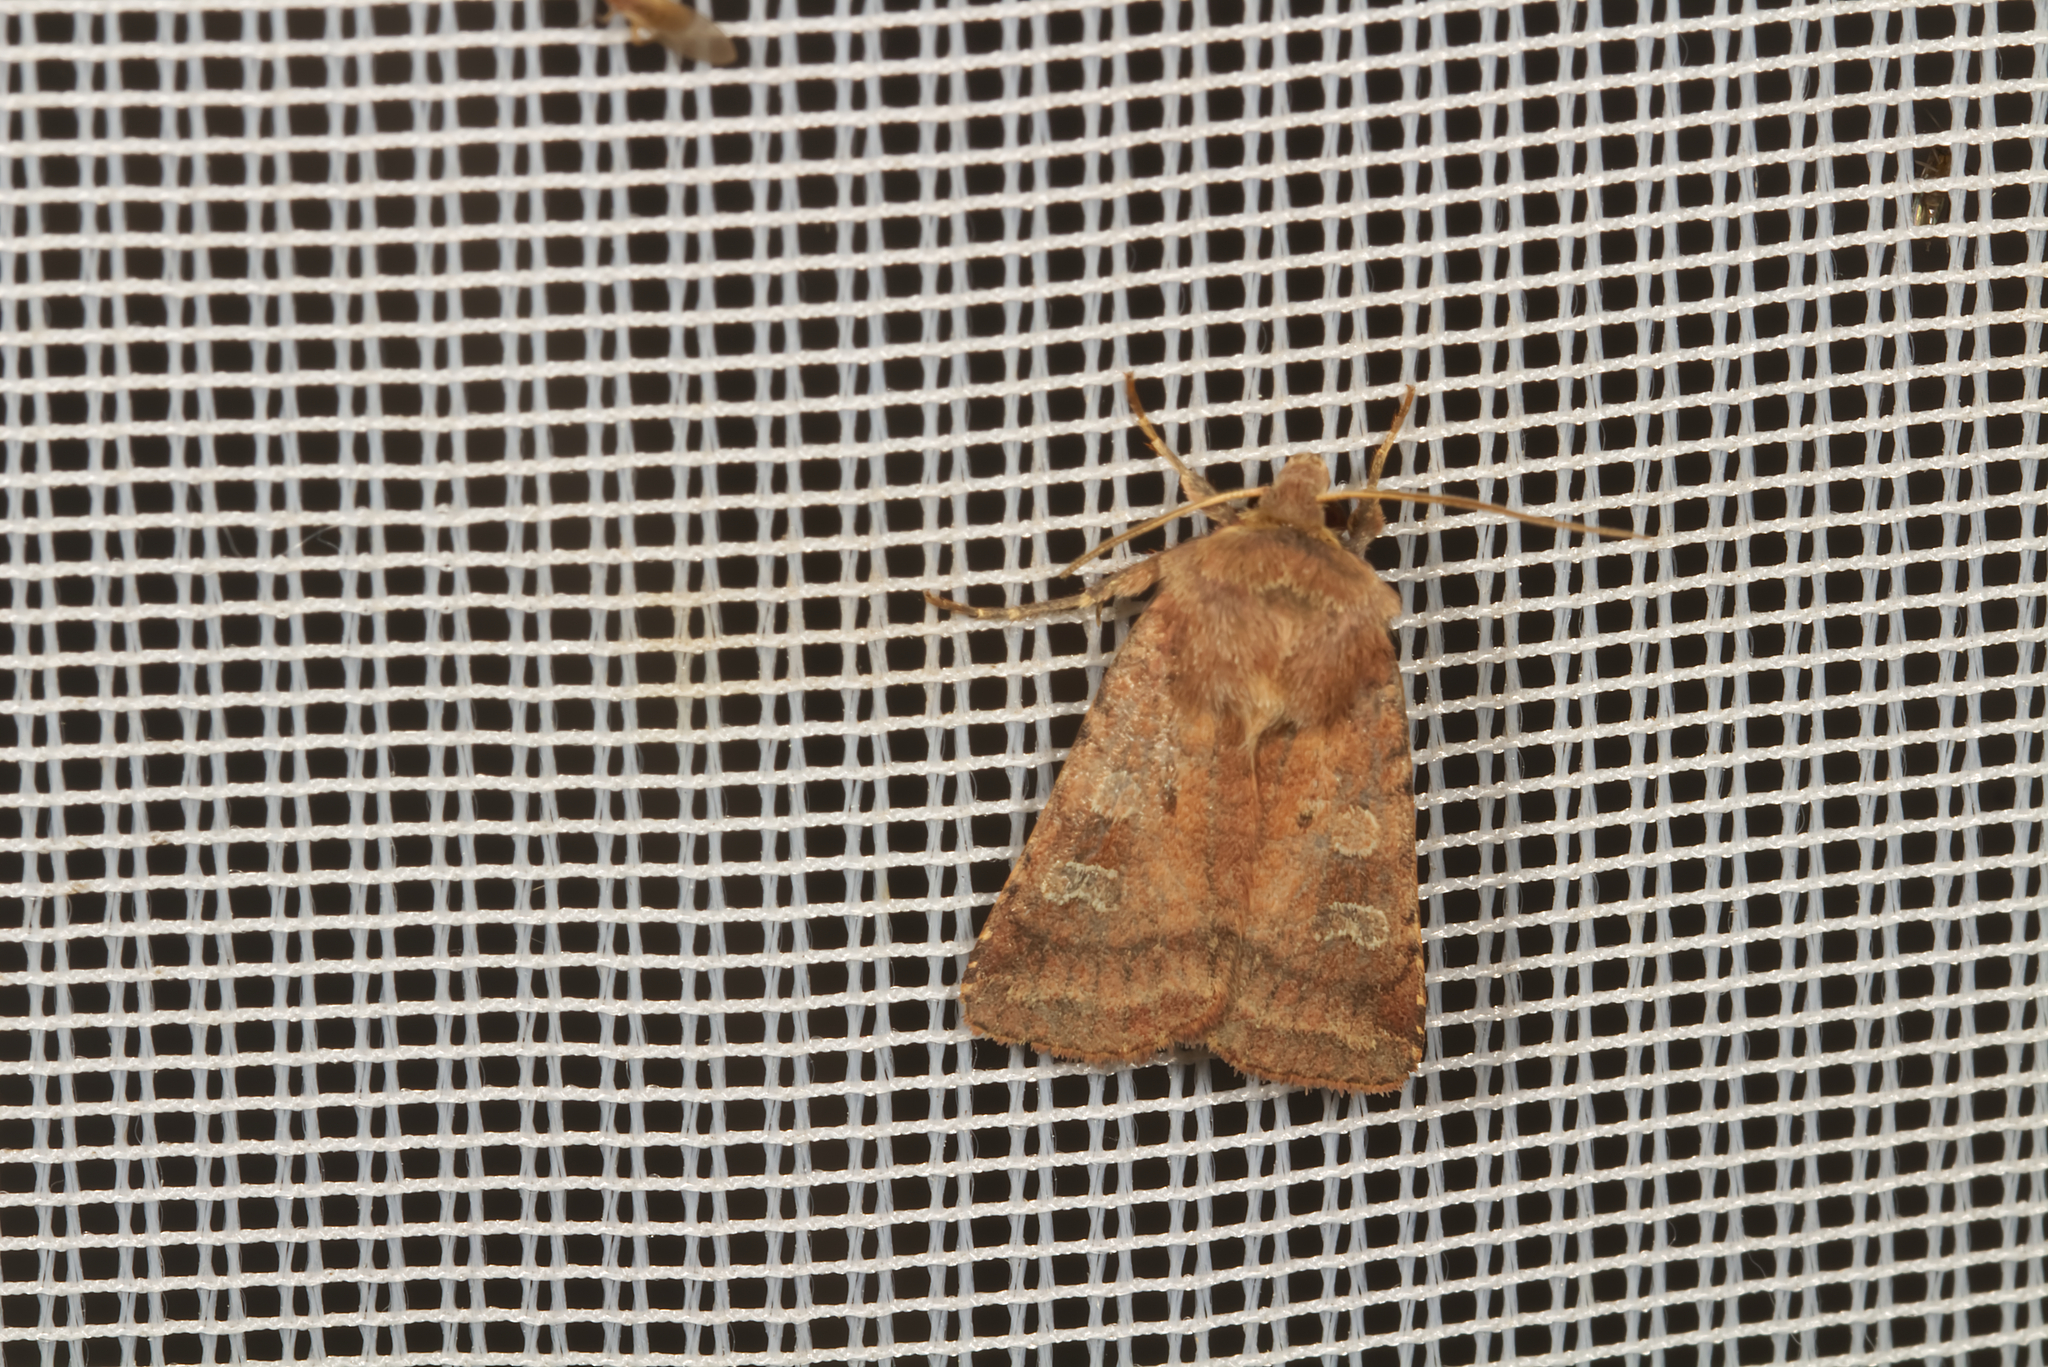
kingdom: Animalia
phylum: Arthropoda
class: Insecta
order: Lepidoptera
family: Noctuidae
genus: Diarsia
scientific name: Diarsia rubi
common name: Small square-spot
